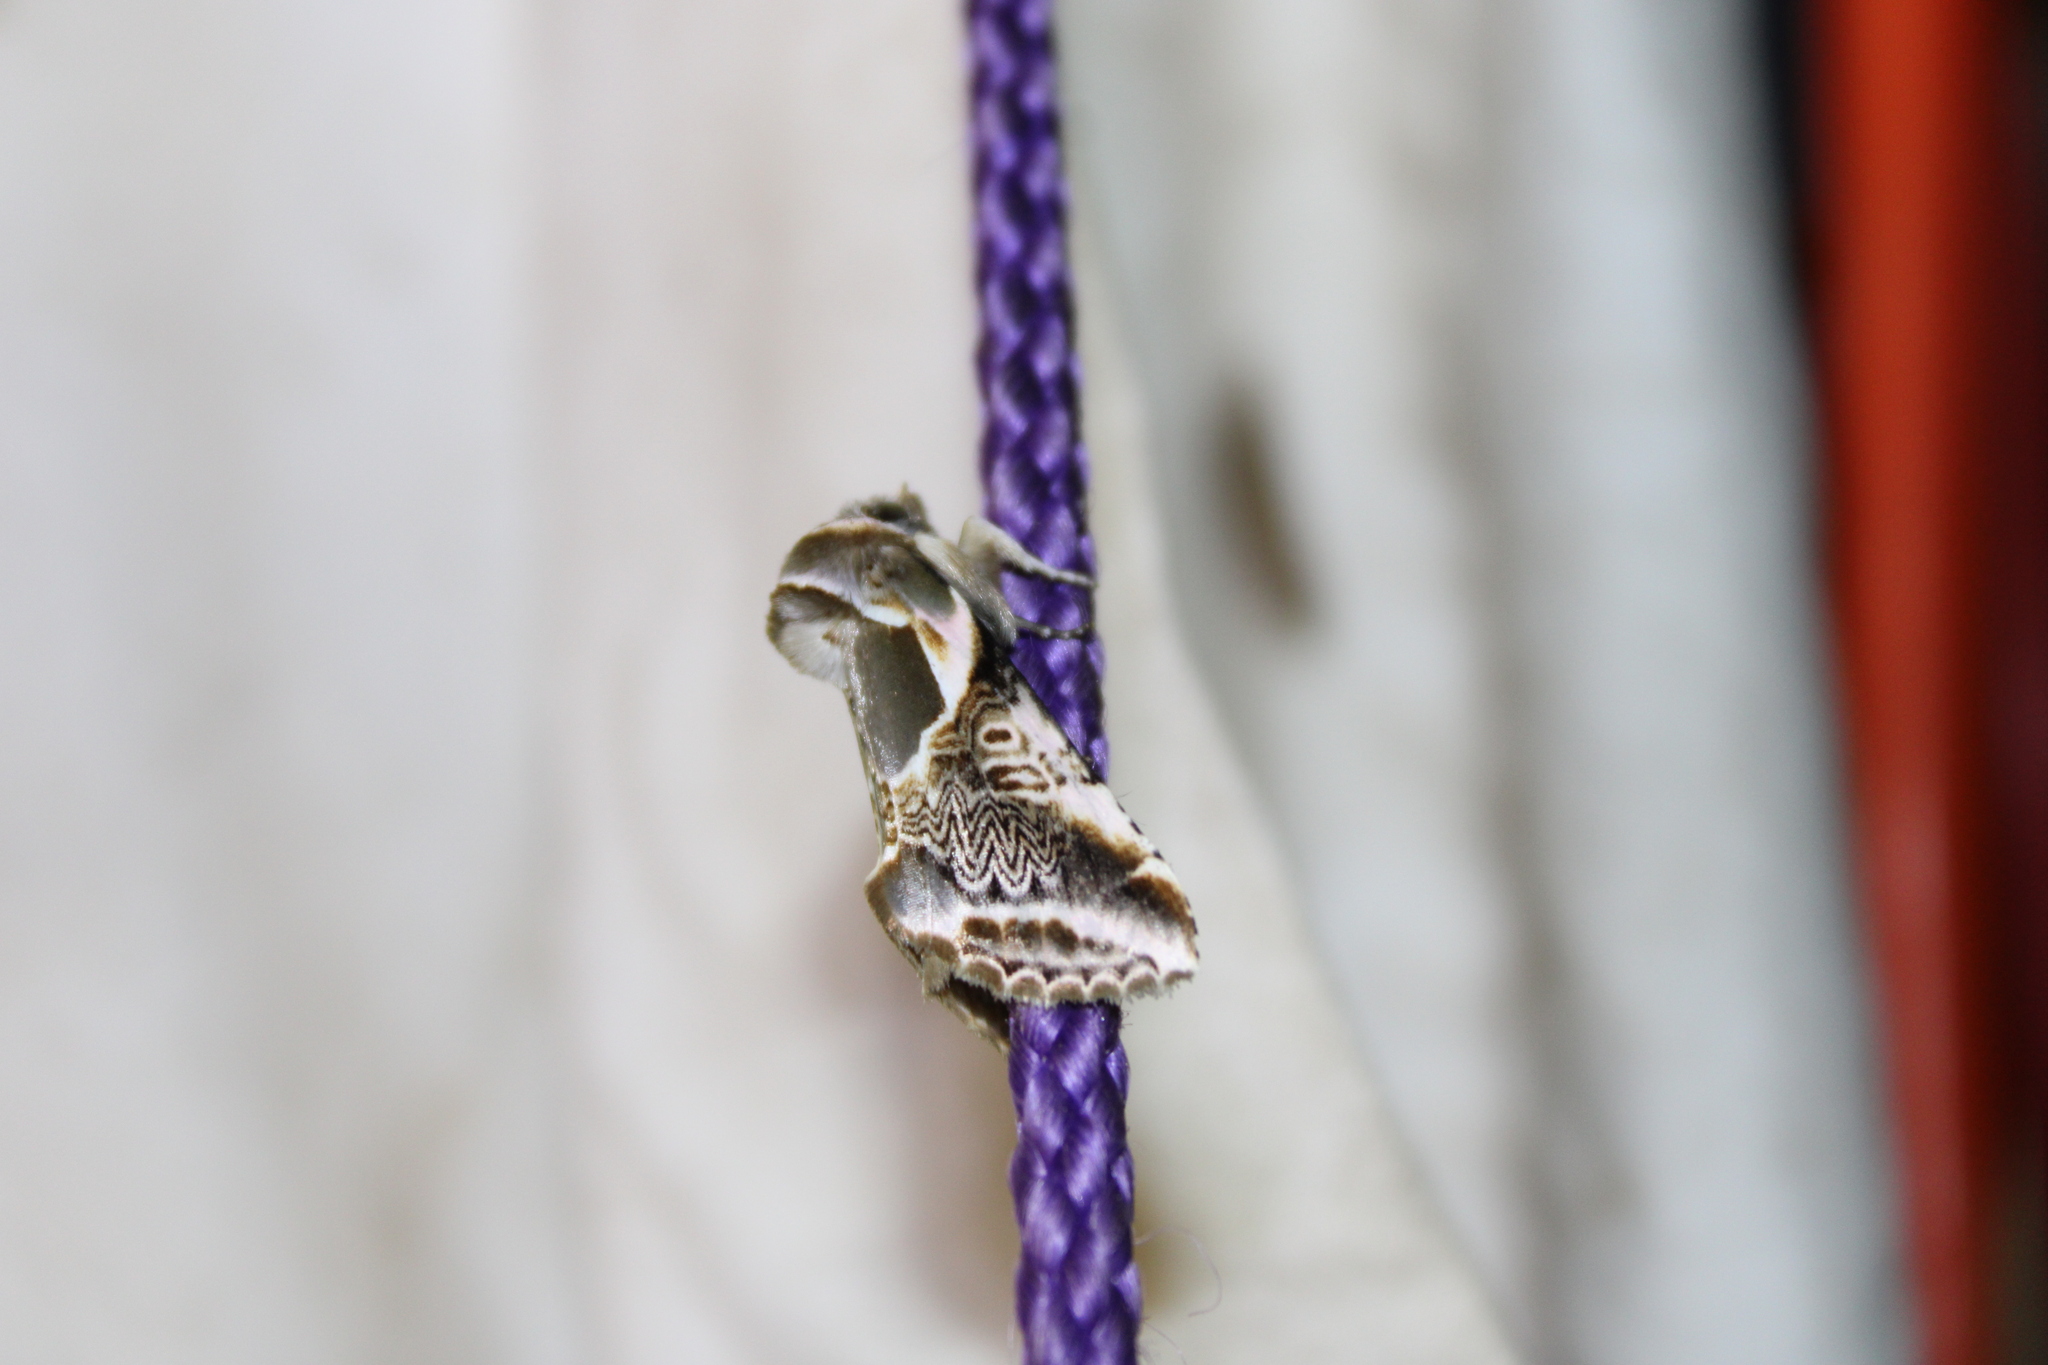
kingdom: Animalia
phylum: Arthropoda
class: Insecta
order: Lepidoptera
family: Drepanidae
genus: Habrosyne
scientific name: Habrosyne scripta
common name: Lettered habrosyne moth
